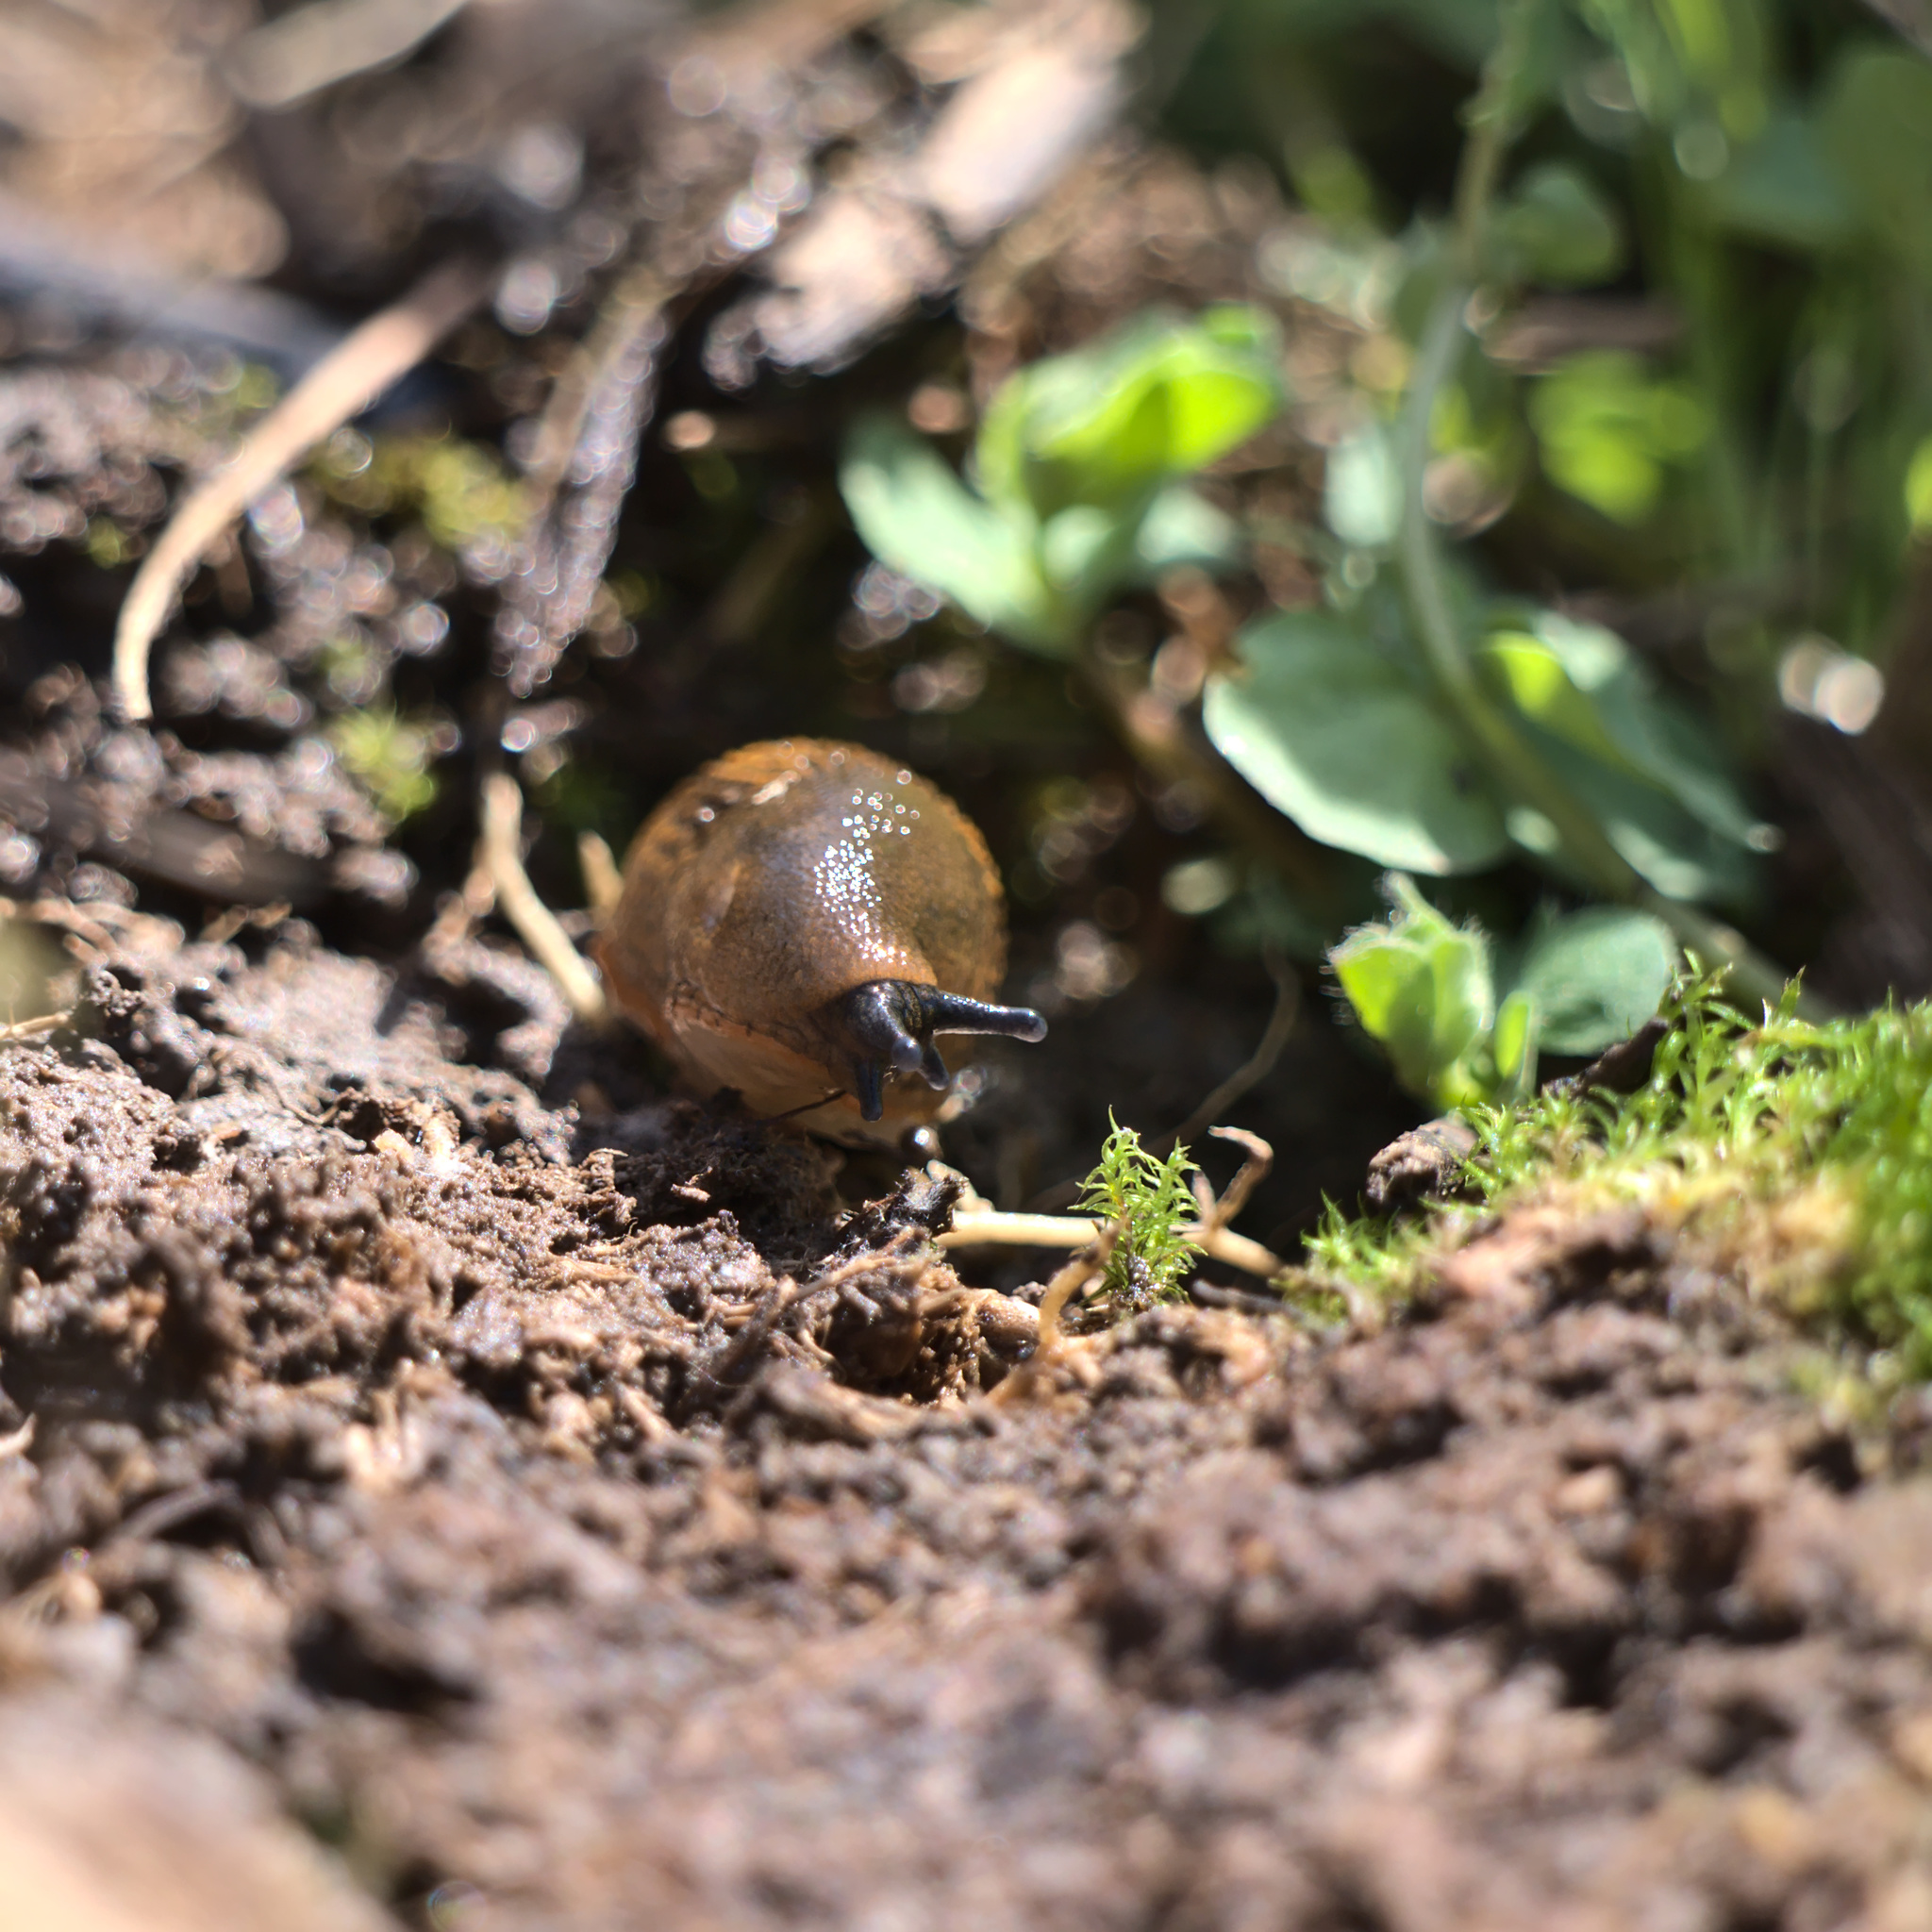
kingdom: Animalia
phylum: Mollusca
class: Gastropoda
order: Stylommatophora
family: Arionidae
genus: Arion
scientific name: Arion rufus
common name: Chocolate arion
